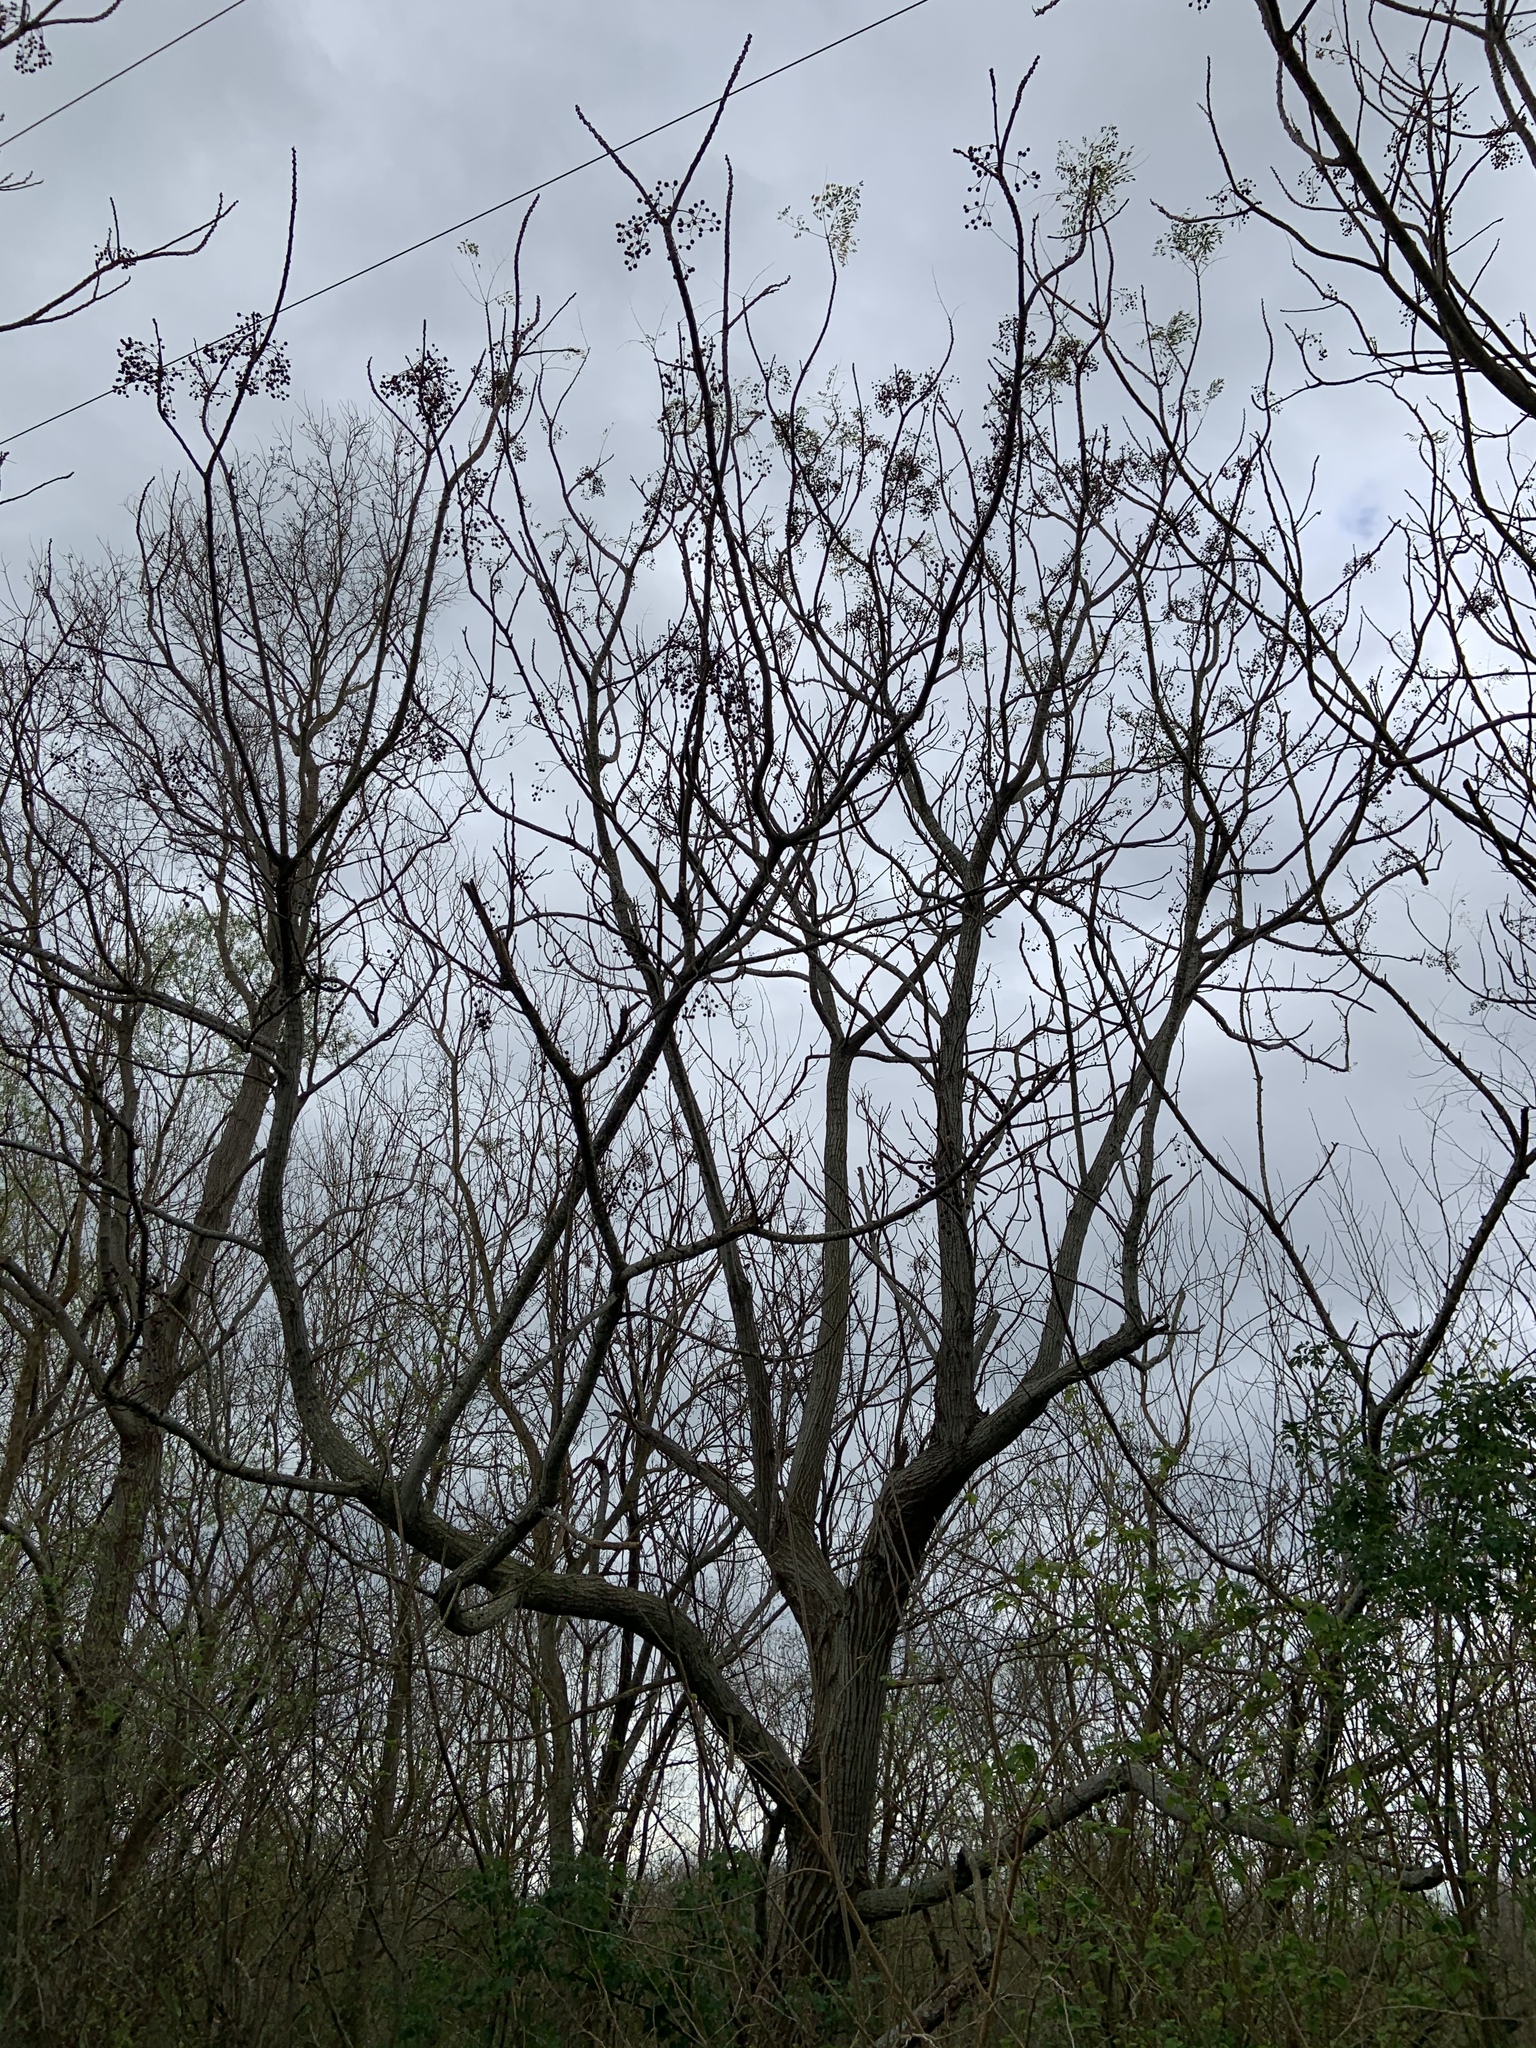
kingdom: Plantae
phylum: Tracheophyta
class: Magnoliopsida
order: Sapindales
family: Meliaceae
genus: Melia
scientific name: Melia azedarach
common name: Chinaberrytree
